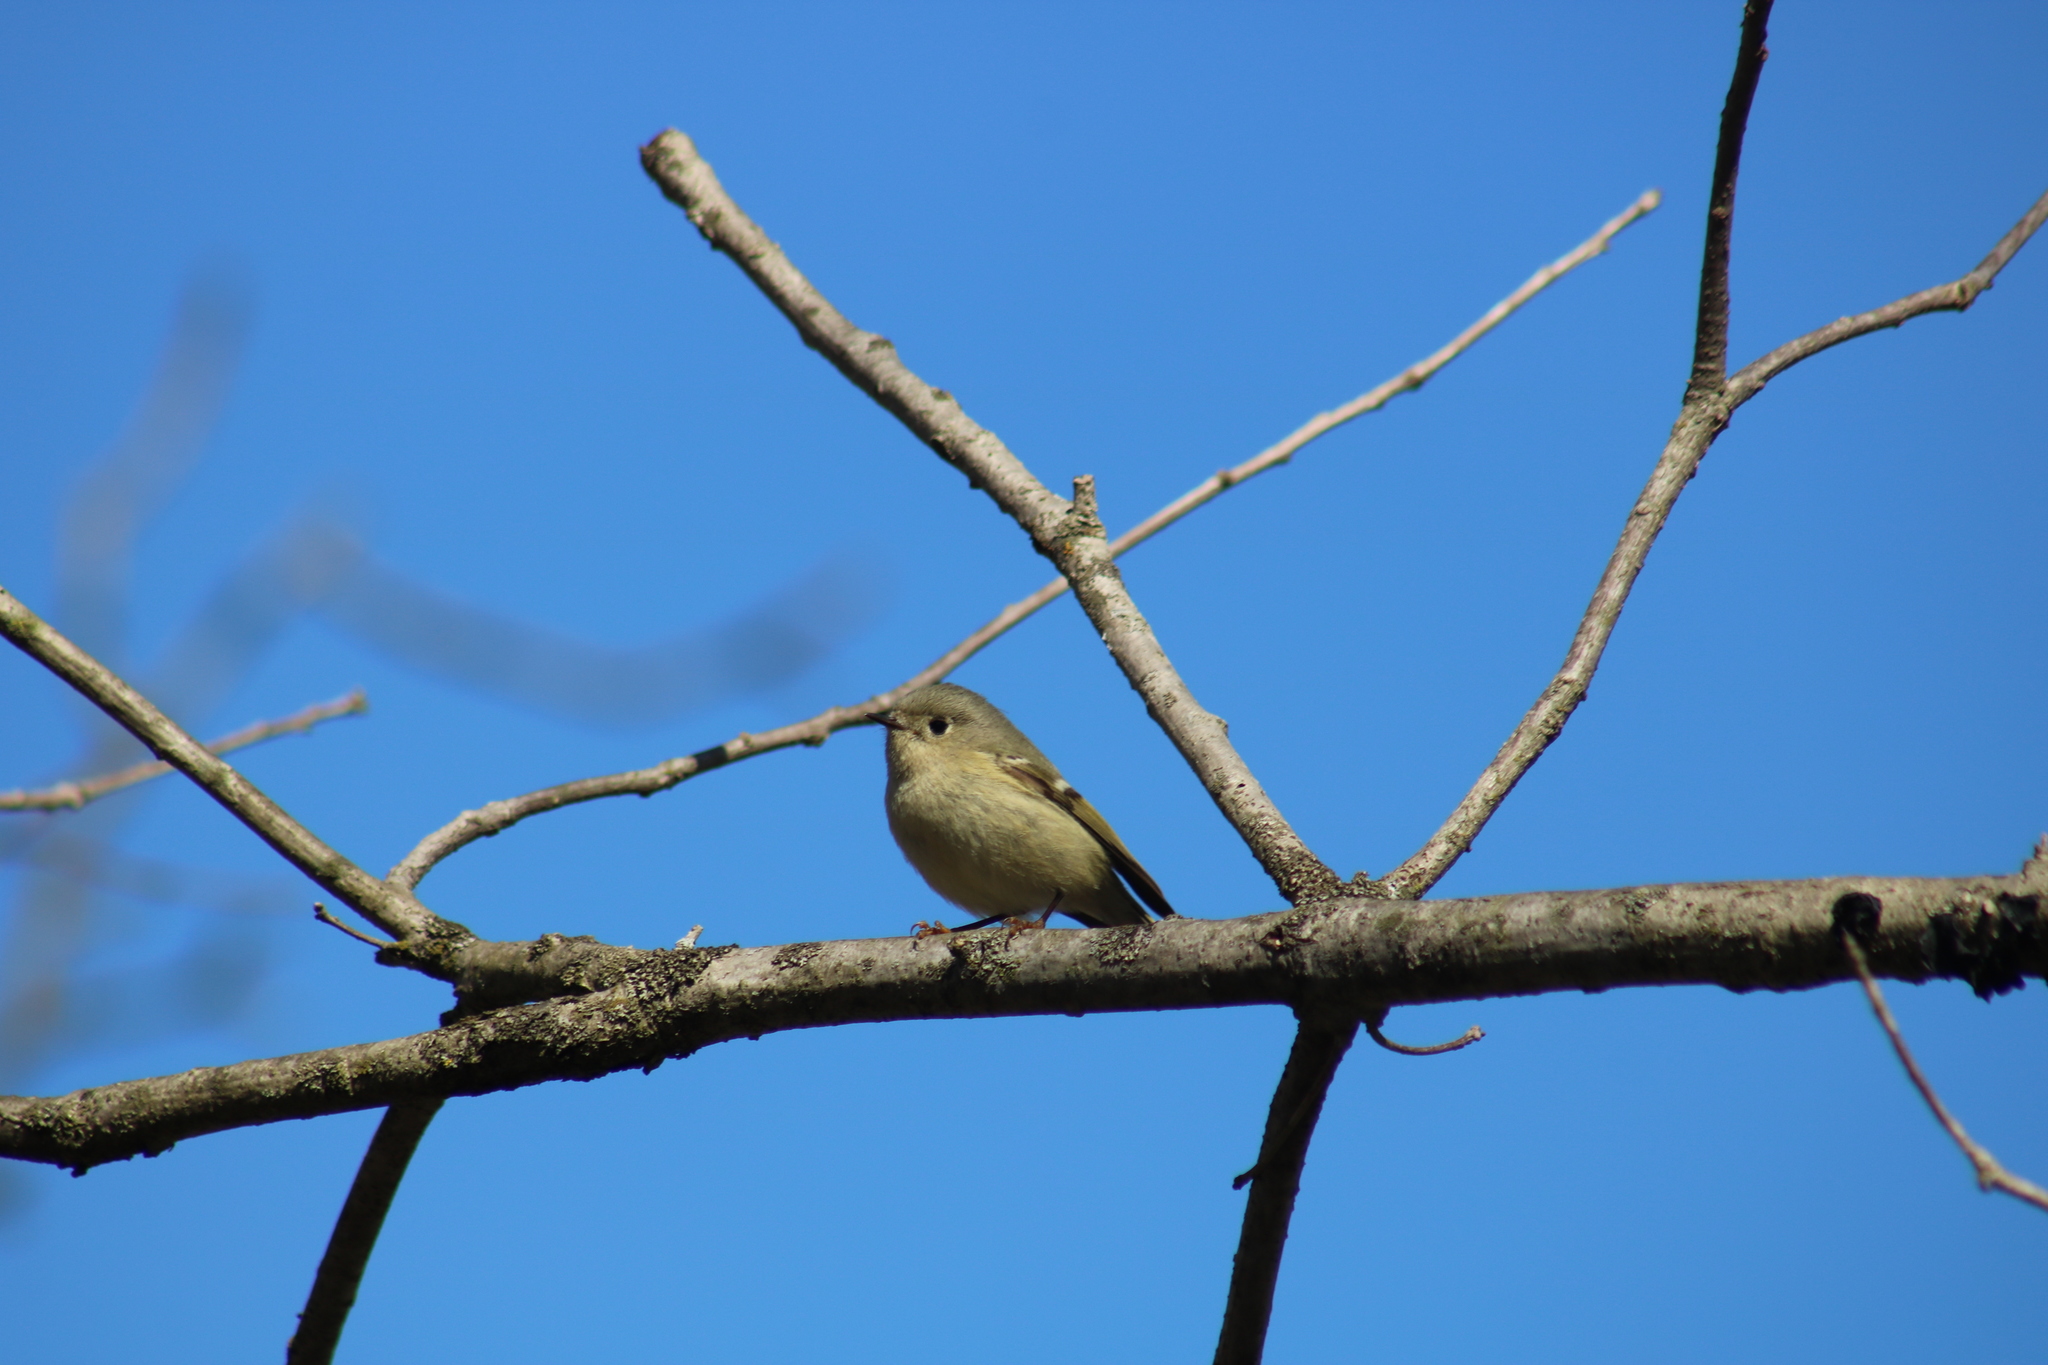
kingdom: Animalia
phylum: Chordata
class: Aves
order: Passeriformes
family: Regulidae
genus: Regulus
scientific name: Regulus calendula
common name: Ruby-crowned kinglet
